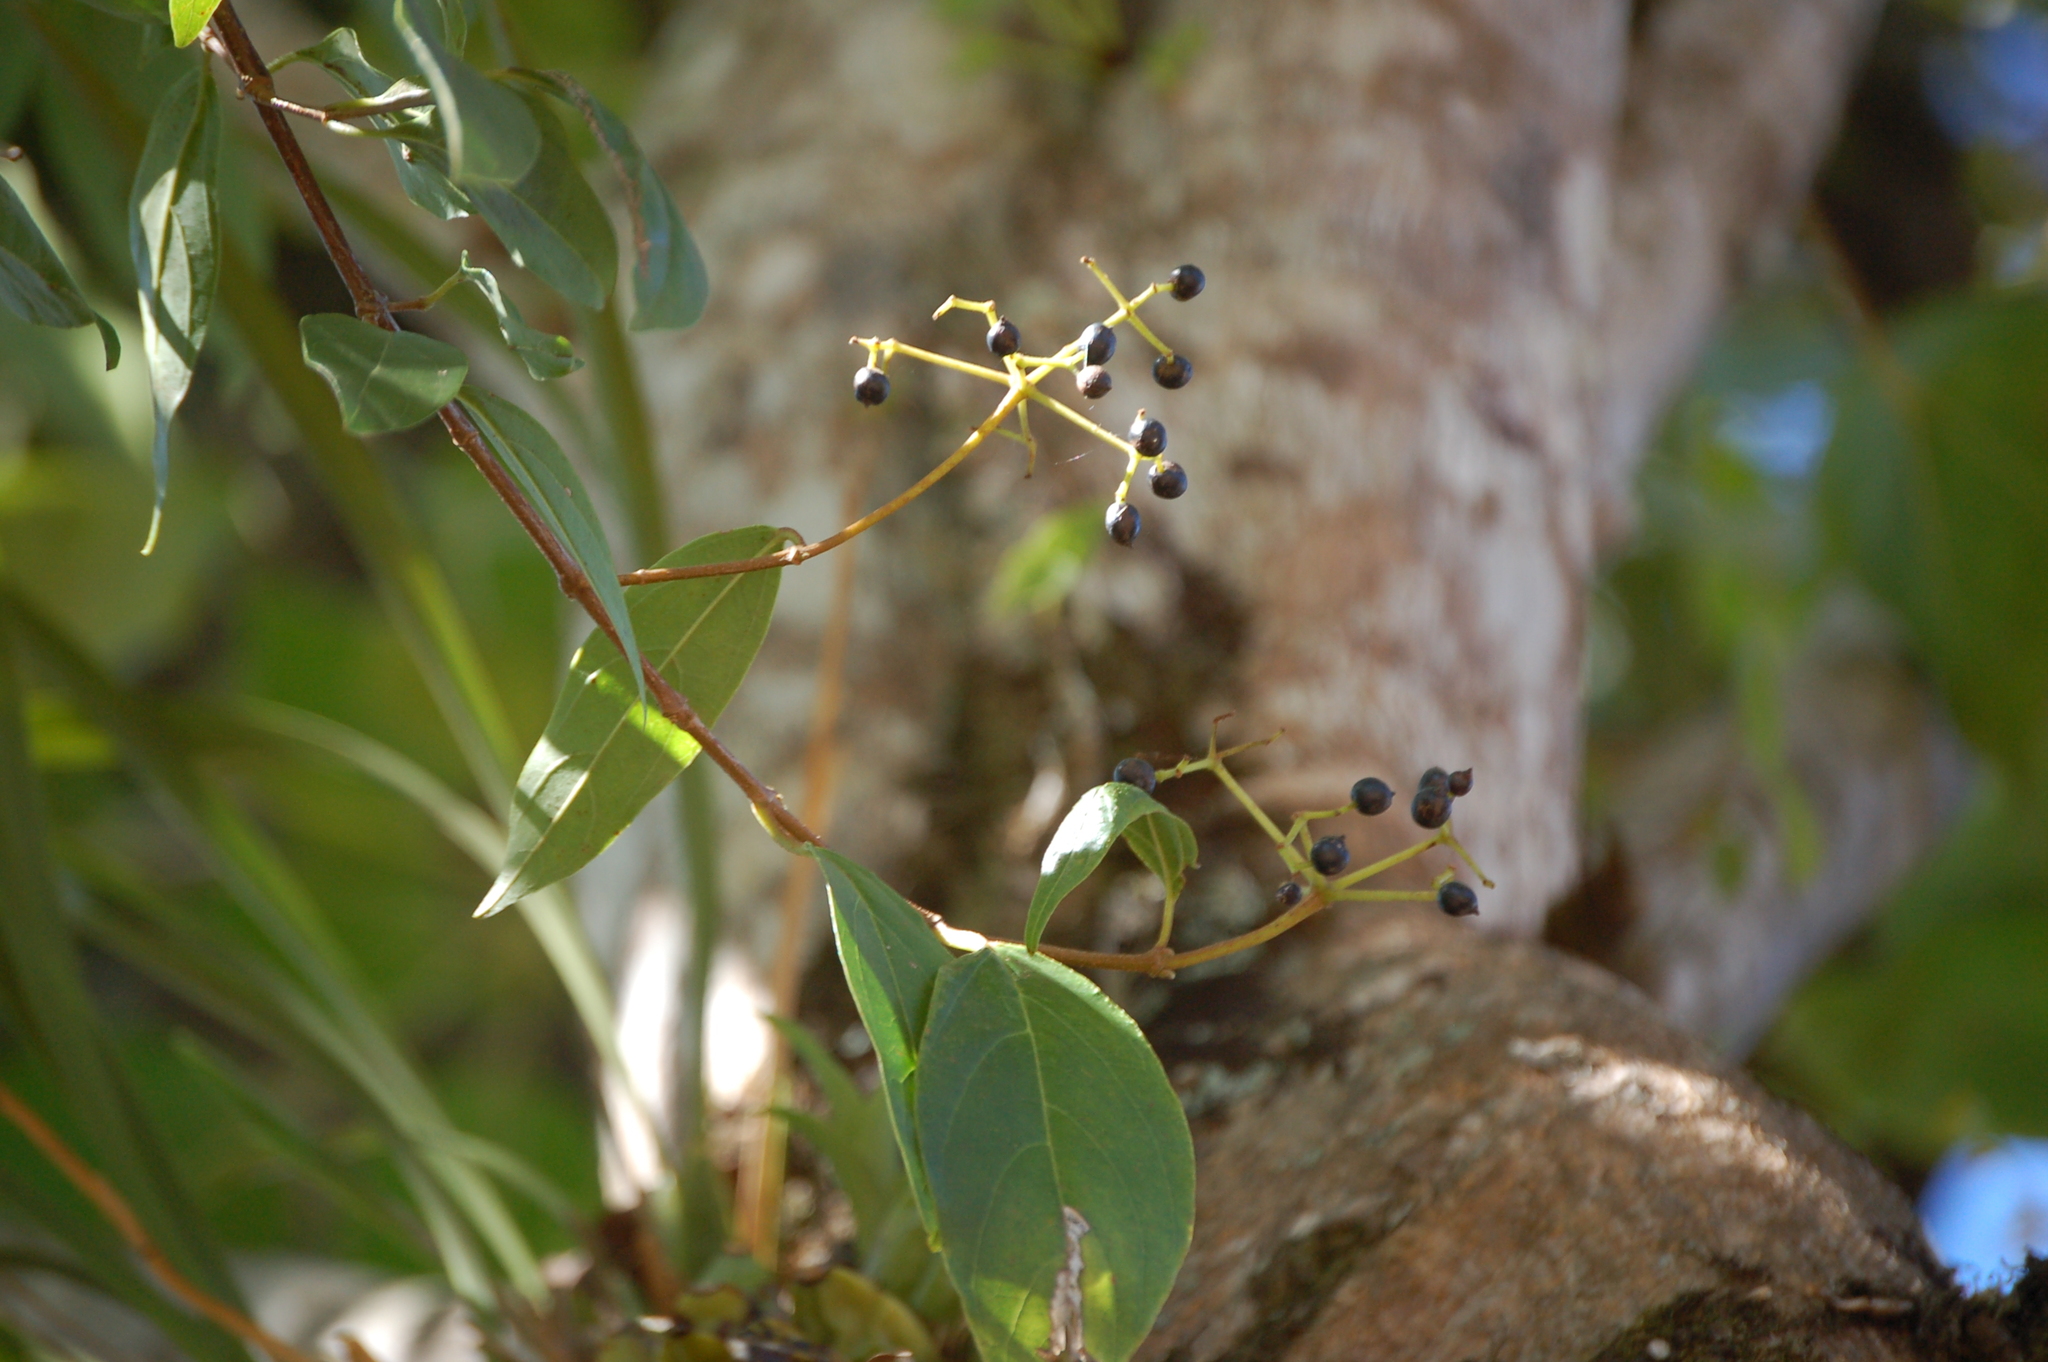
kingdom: Plantae
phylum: Tracheophyta
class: Magnoliopsida
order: Dipsacales
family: Viburnaceae
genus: Viburnum
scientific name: Viburnum hartwegii
